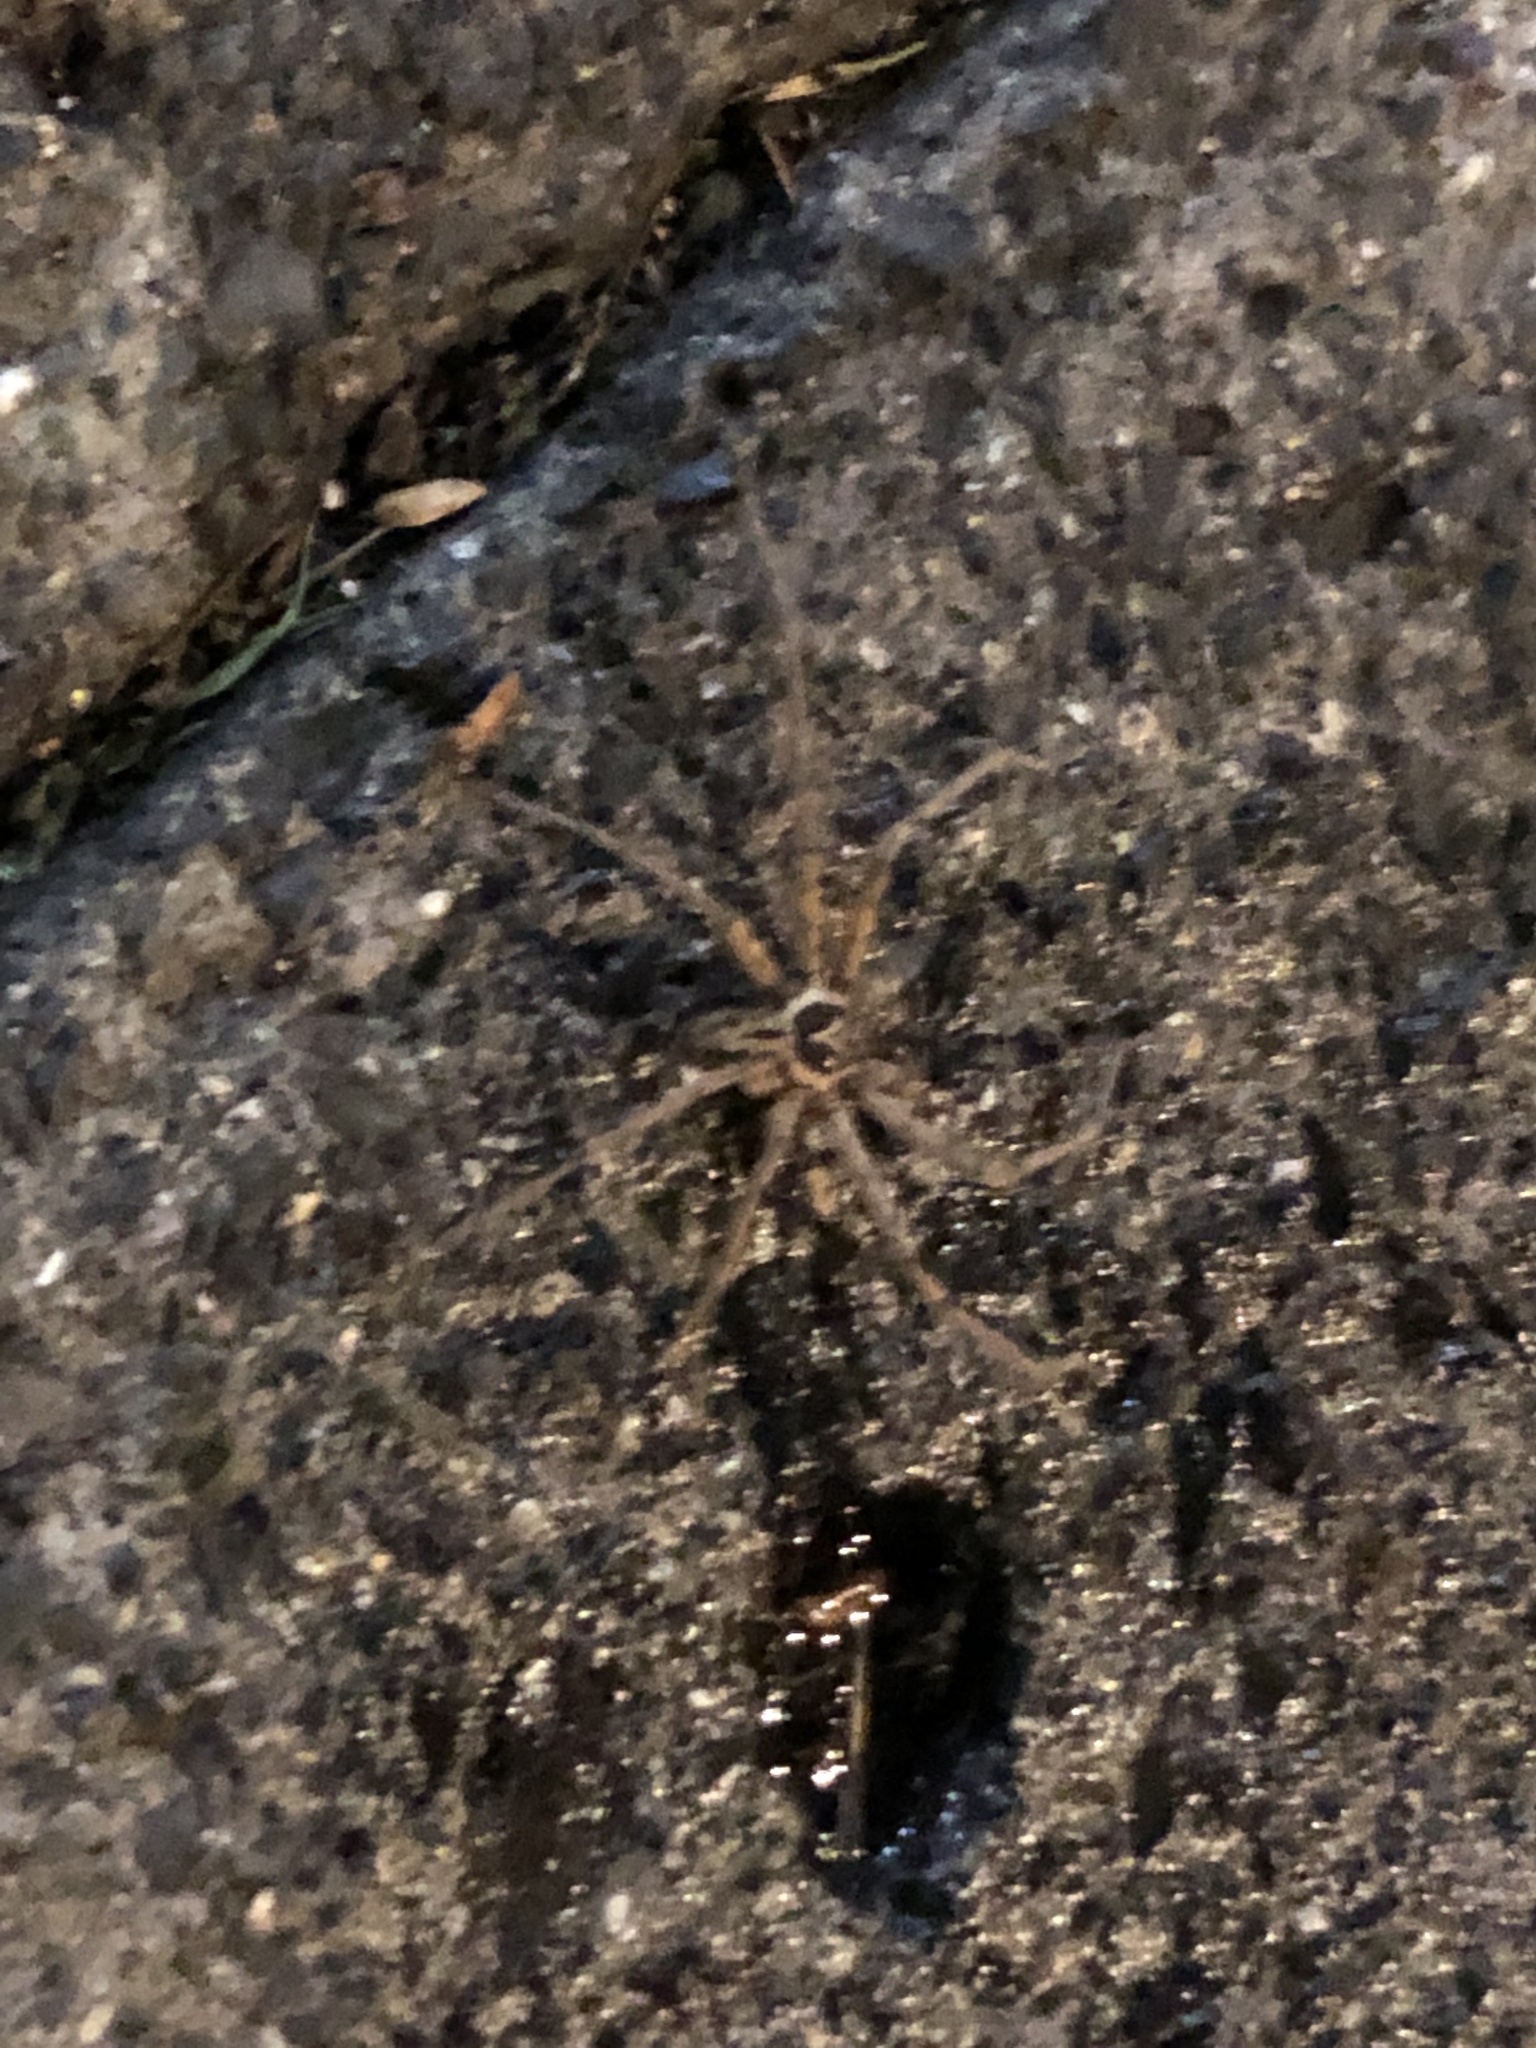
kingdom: Animalia
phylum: Arthropoda
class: Arachnida
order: Araneae
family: Sparassidae
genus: Heteropoda
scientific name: Heteropoda venatoria
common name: Huntsman spider
